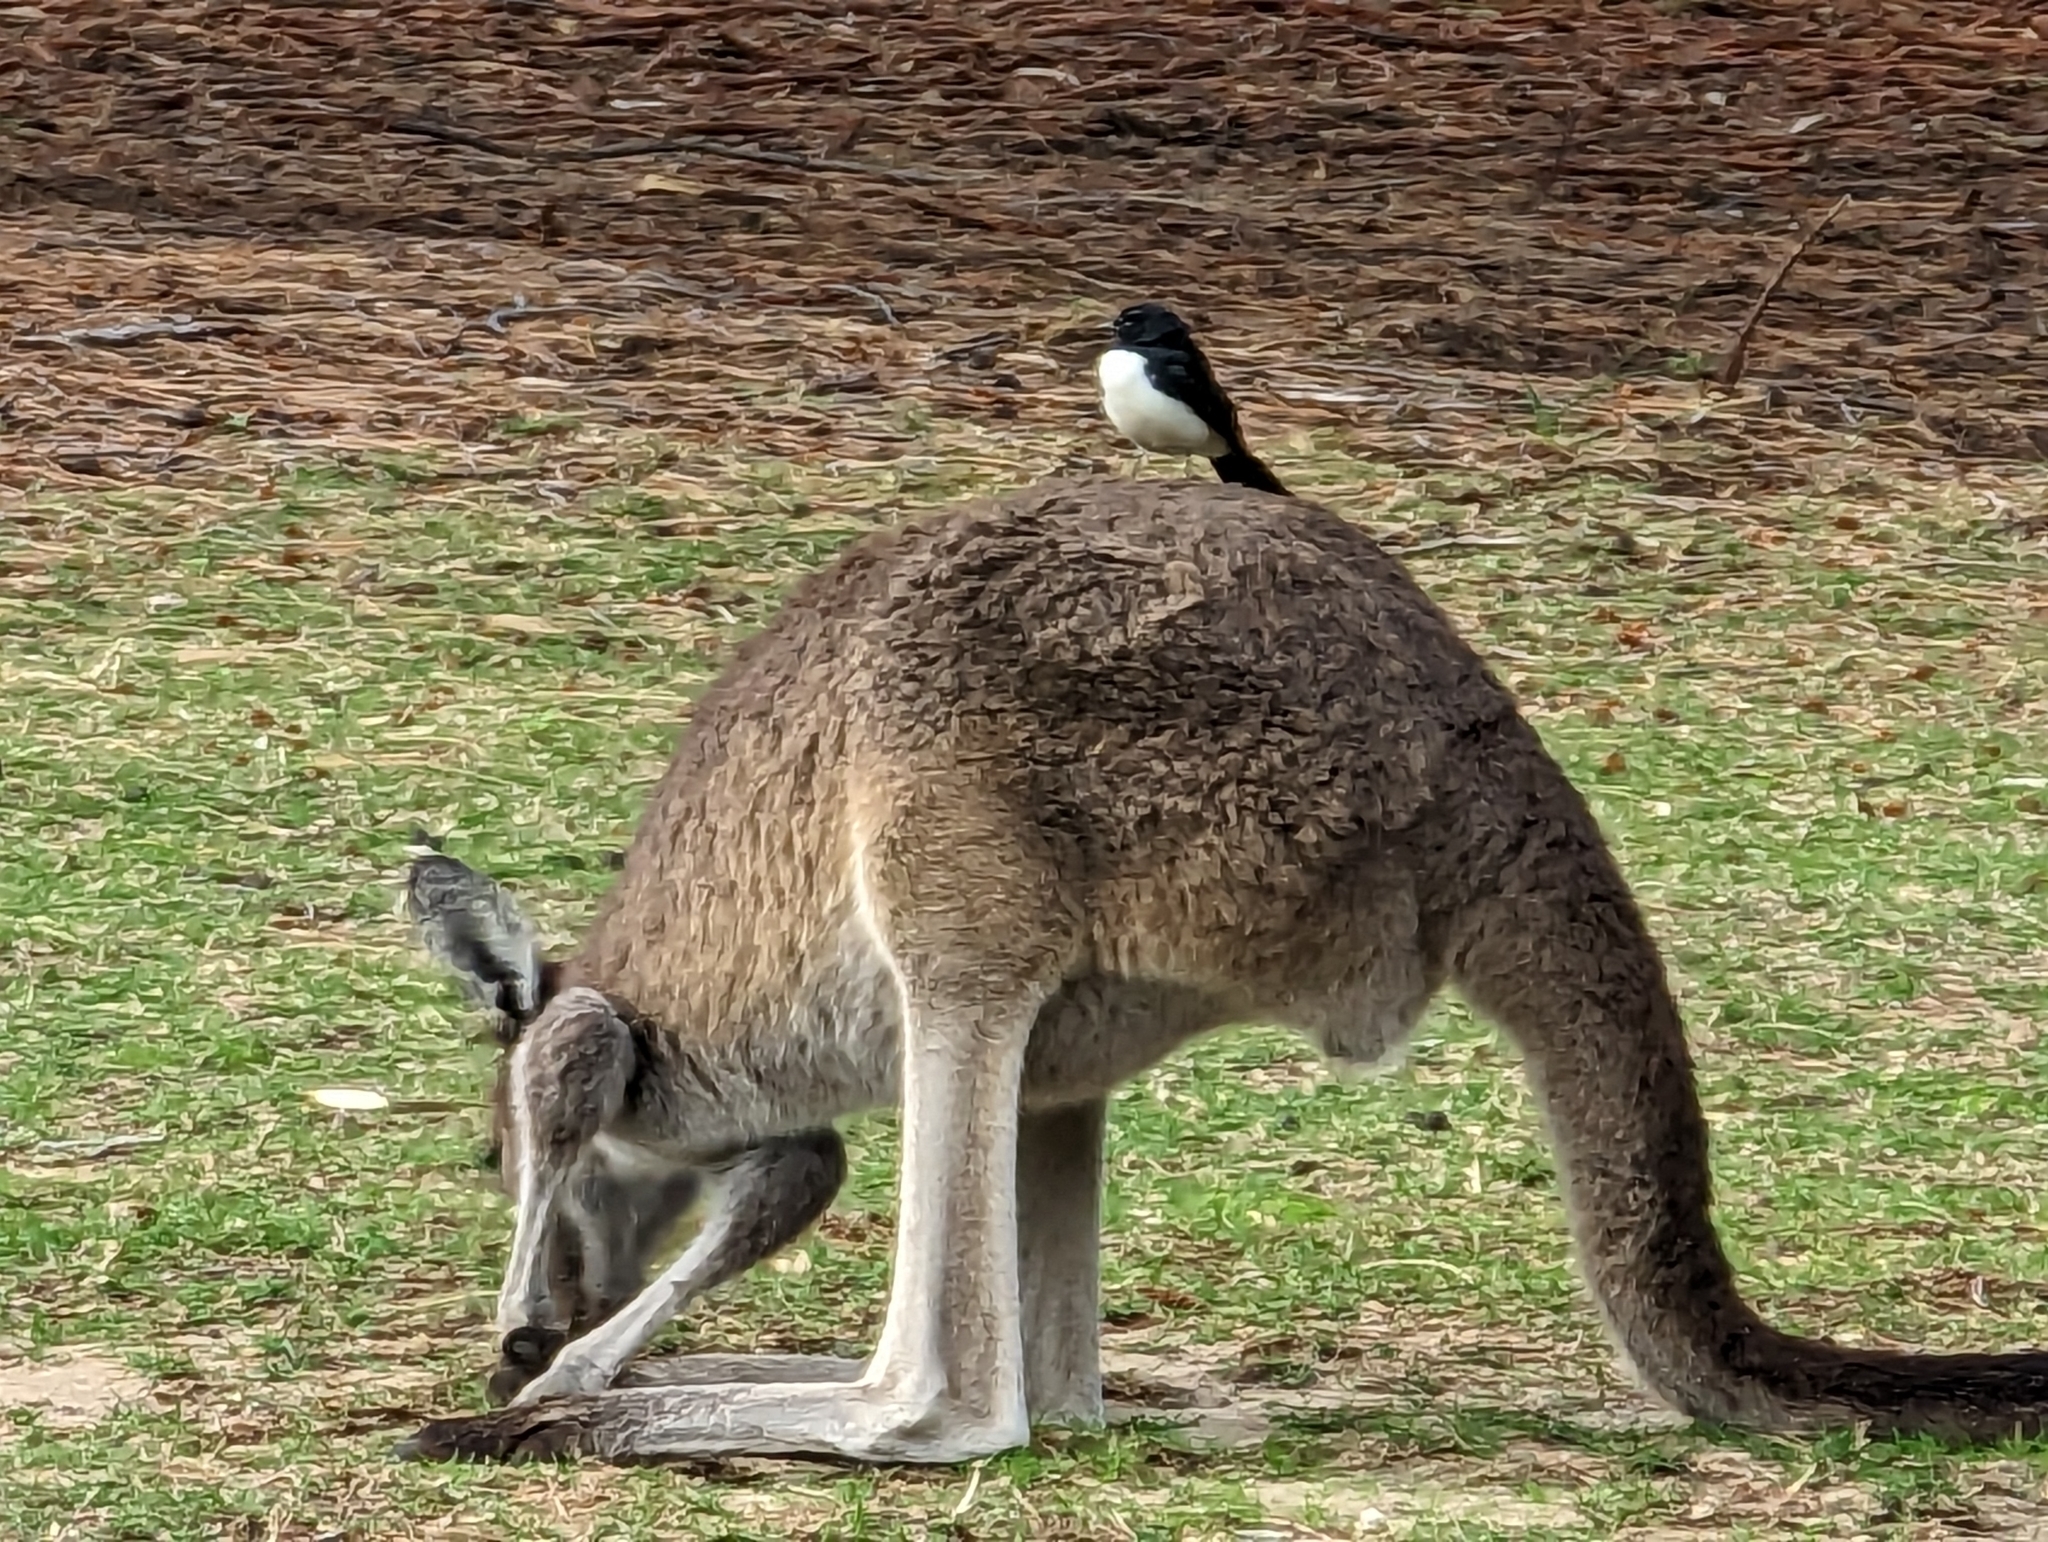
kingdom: Animalia
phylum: Chordata
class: Aves
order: Passeriformes
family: Rhipiduridae
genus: Rhipidura
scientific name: Rhipidura leucophrys
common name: Willie wagtail
